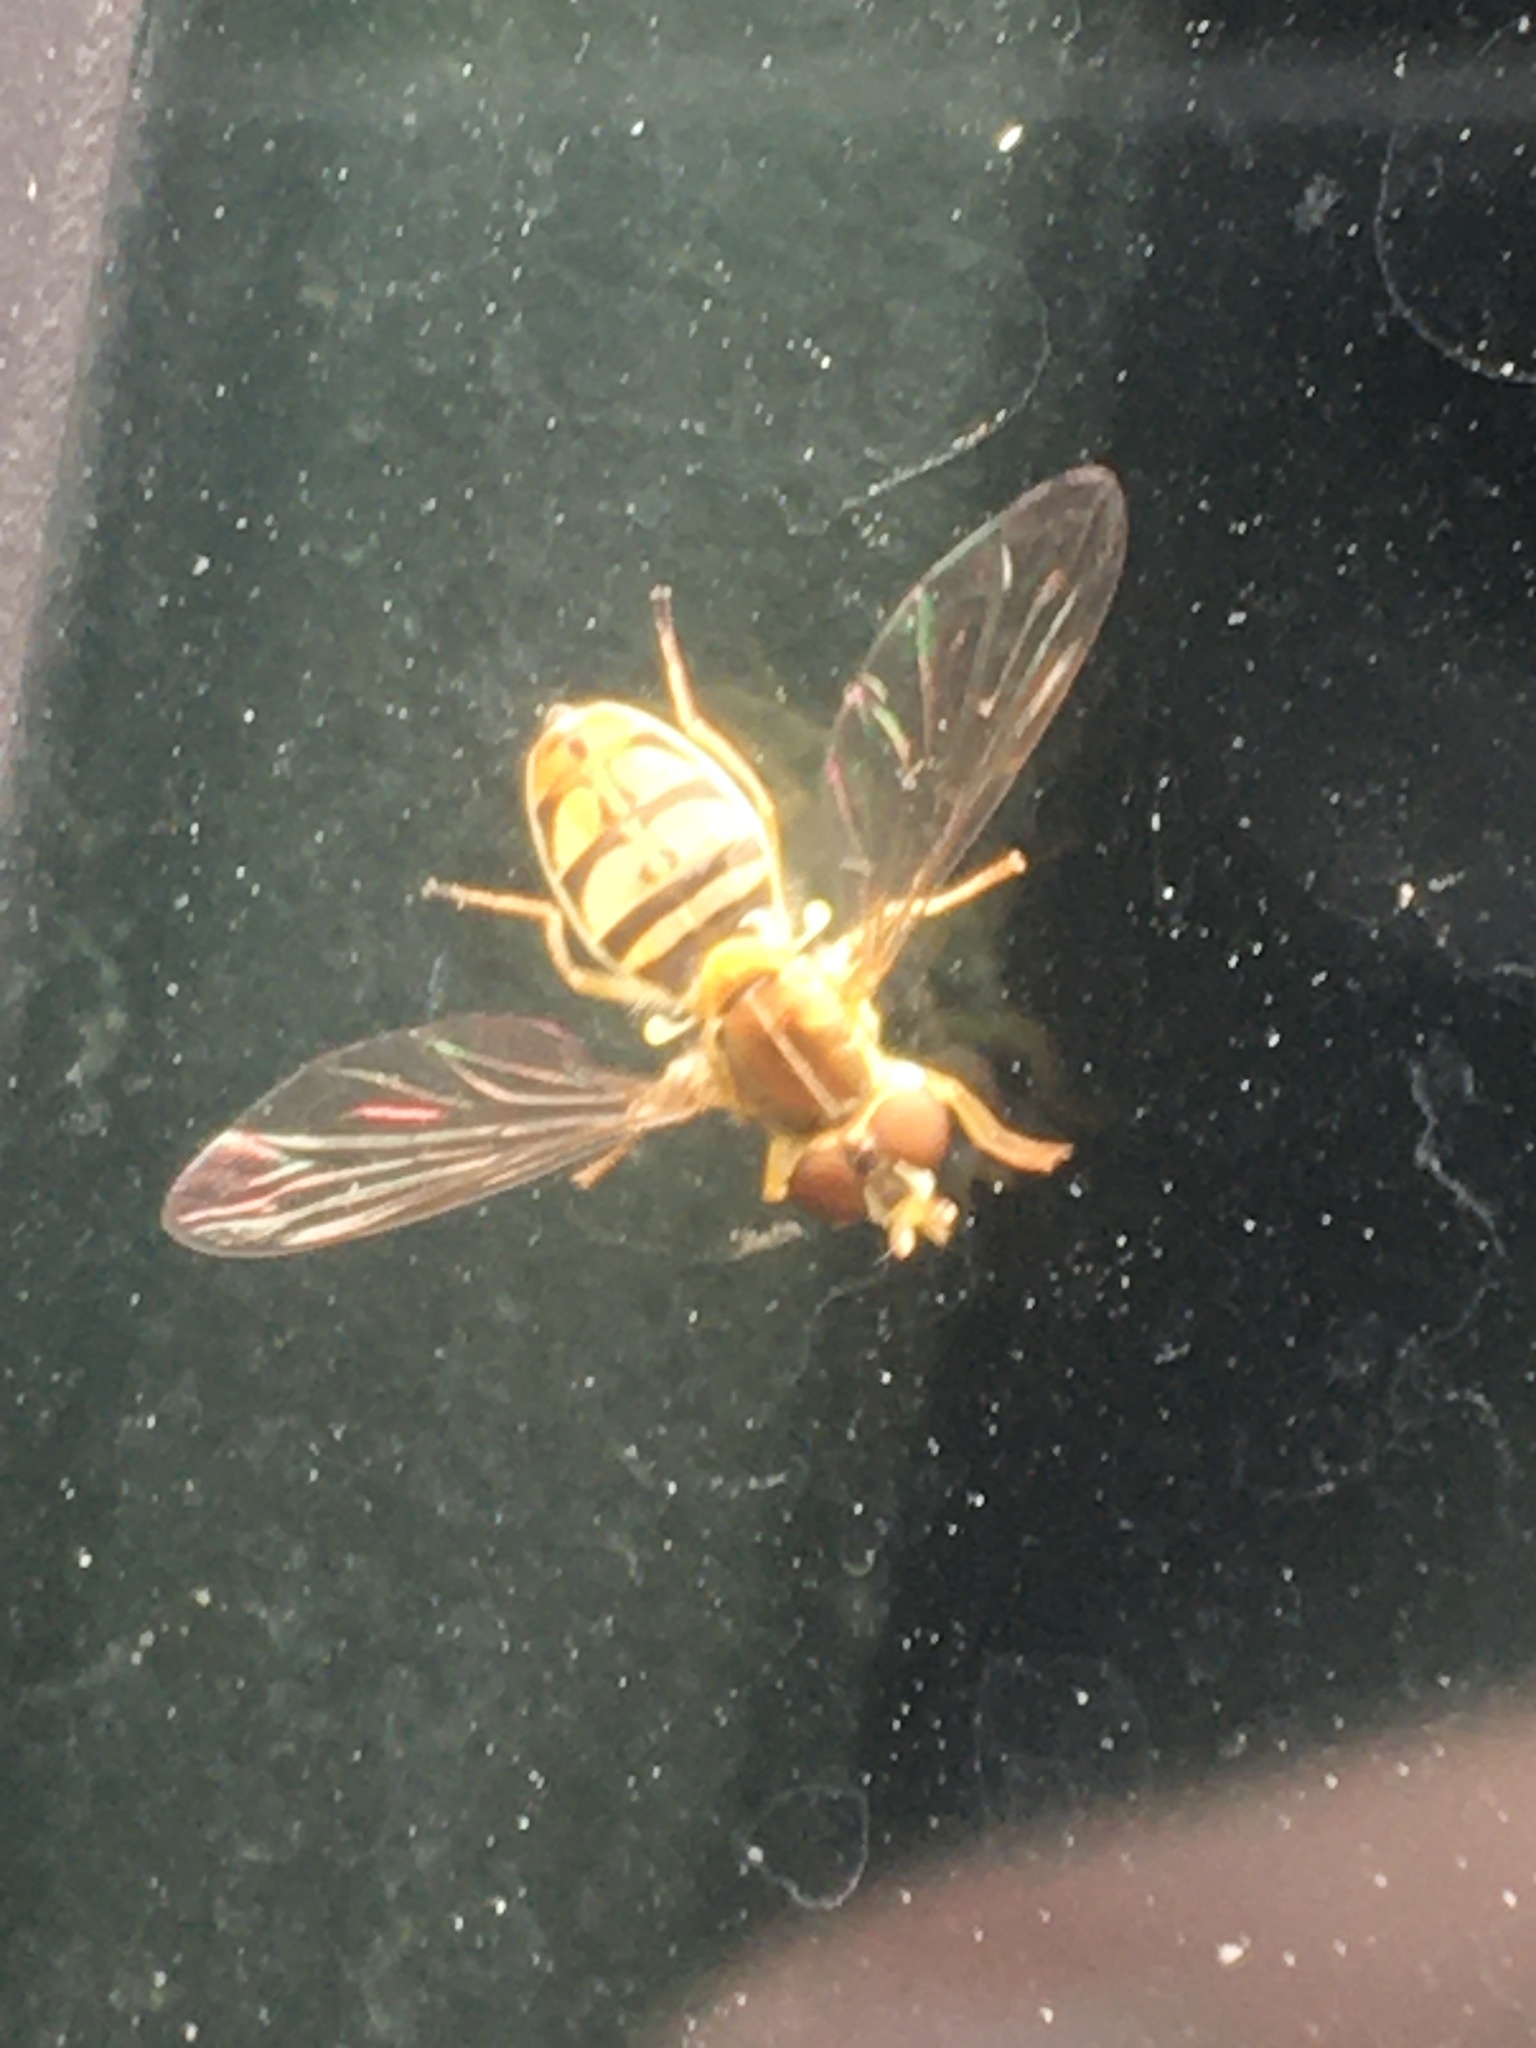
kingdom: Animalia
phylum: Arthropoda
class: Insecta
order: Diptera
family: Syrphidae
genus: Toxomerus
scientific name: Toxomerus marginatus
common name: Syrphid fly
